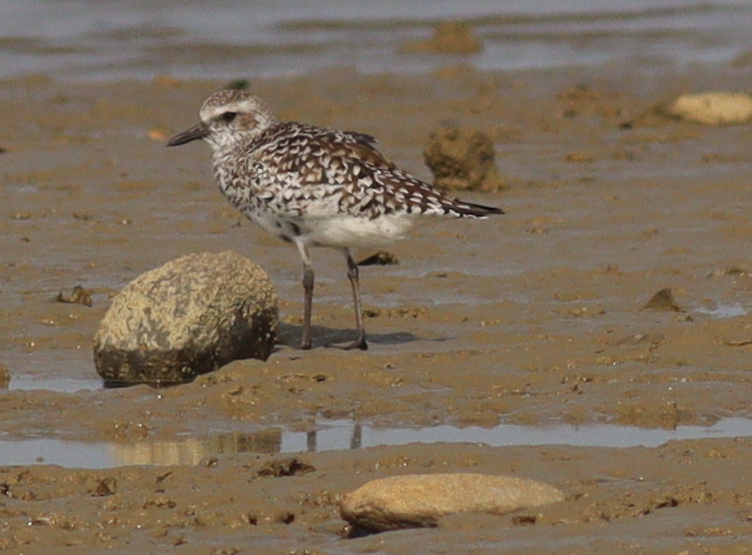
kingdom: Animalia
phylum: Chordata
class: Aves
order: Charadriiformes
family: Charadriidae
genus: Pluvialis
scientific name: Pluvialis squatarola
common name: Grey plover
